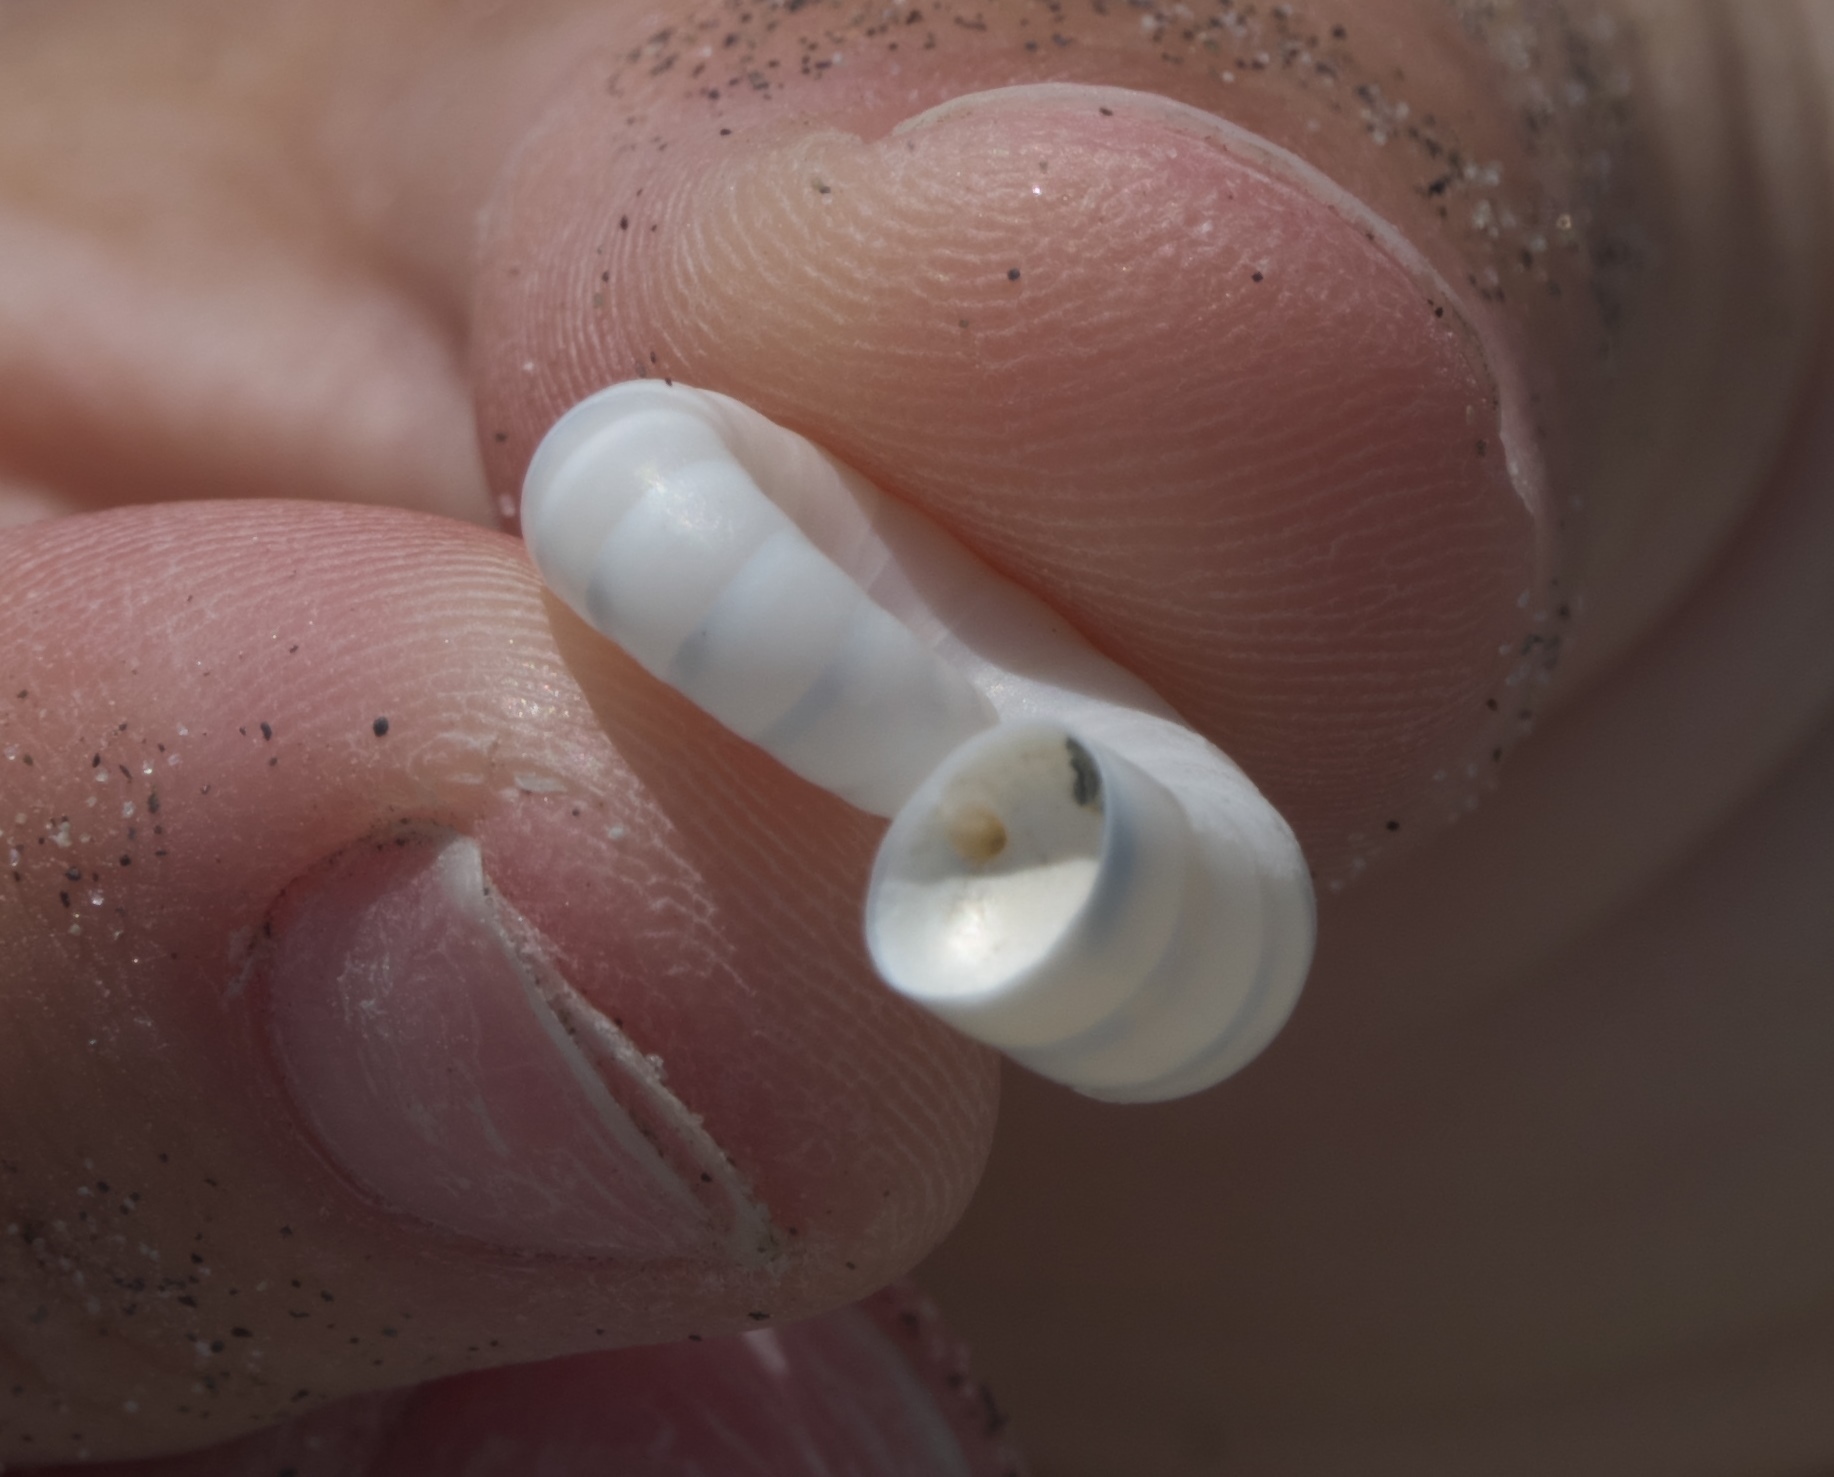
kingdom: Animalia
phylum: Mollusca
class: Cephalopoda
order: Spirulida
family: Spirulidae
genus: Spirula
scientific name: Spirula spirula
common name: Ram's horn squid
